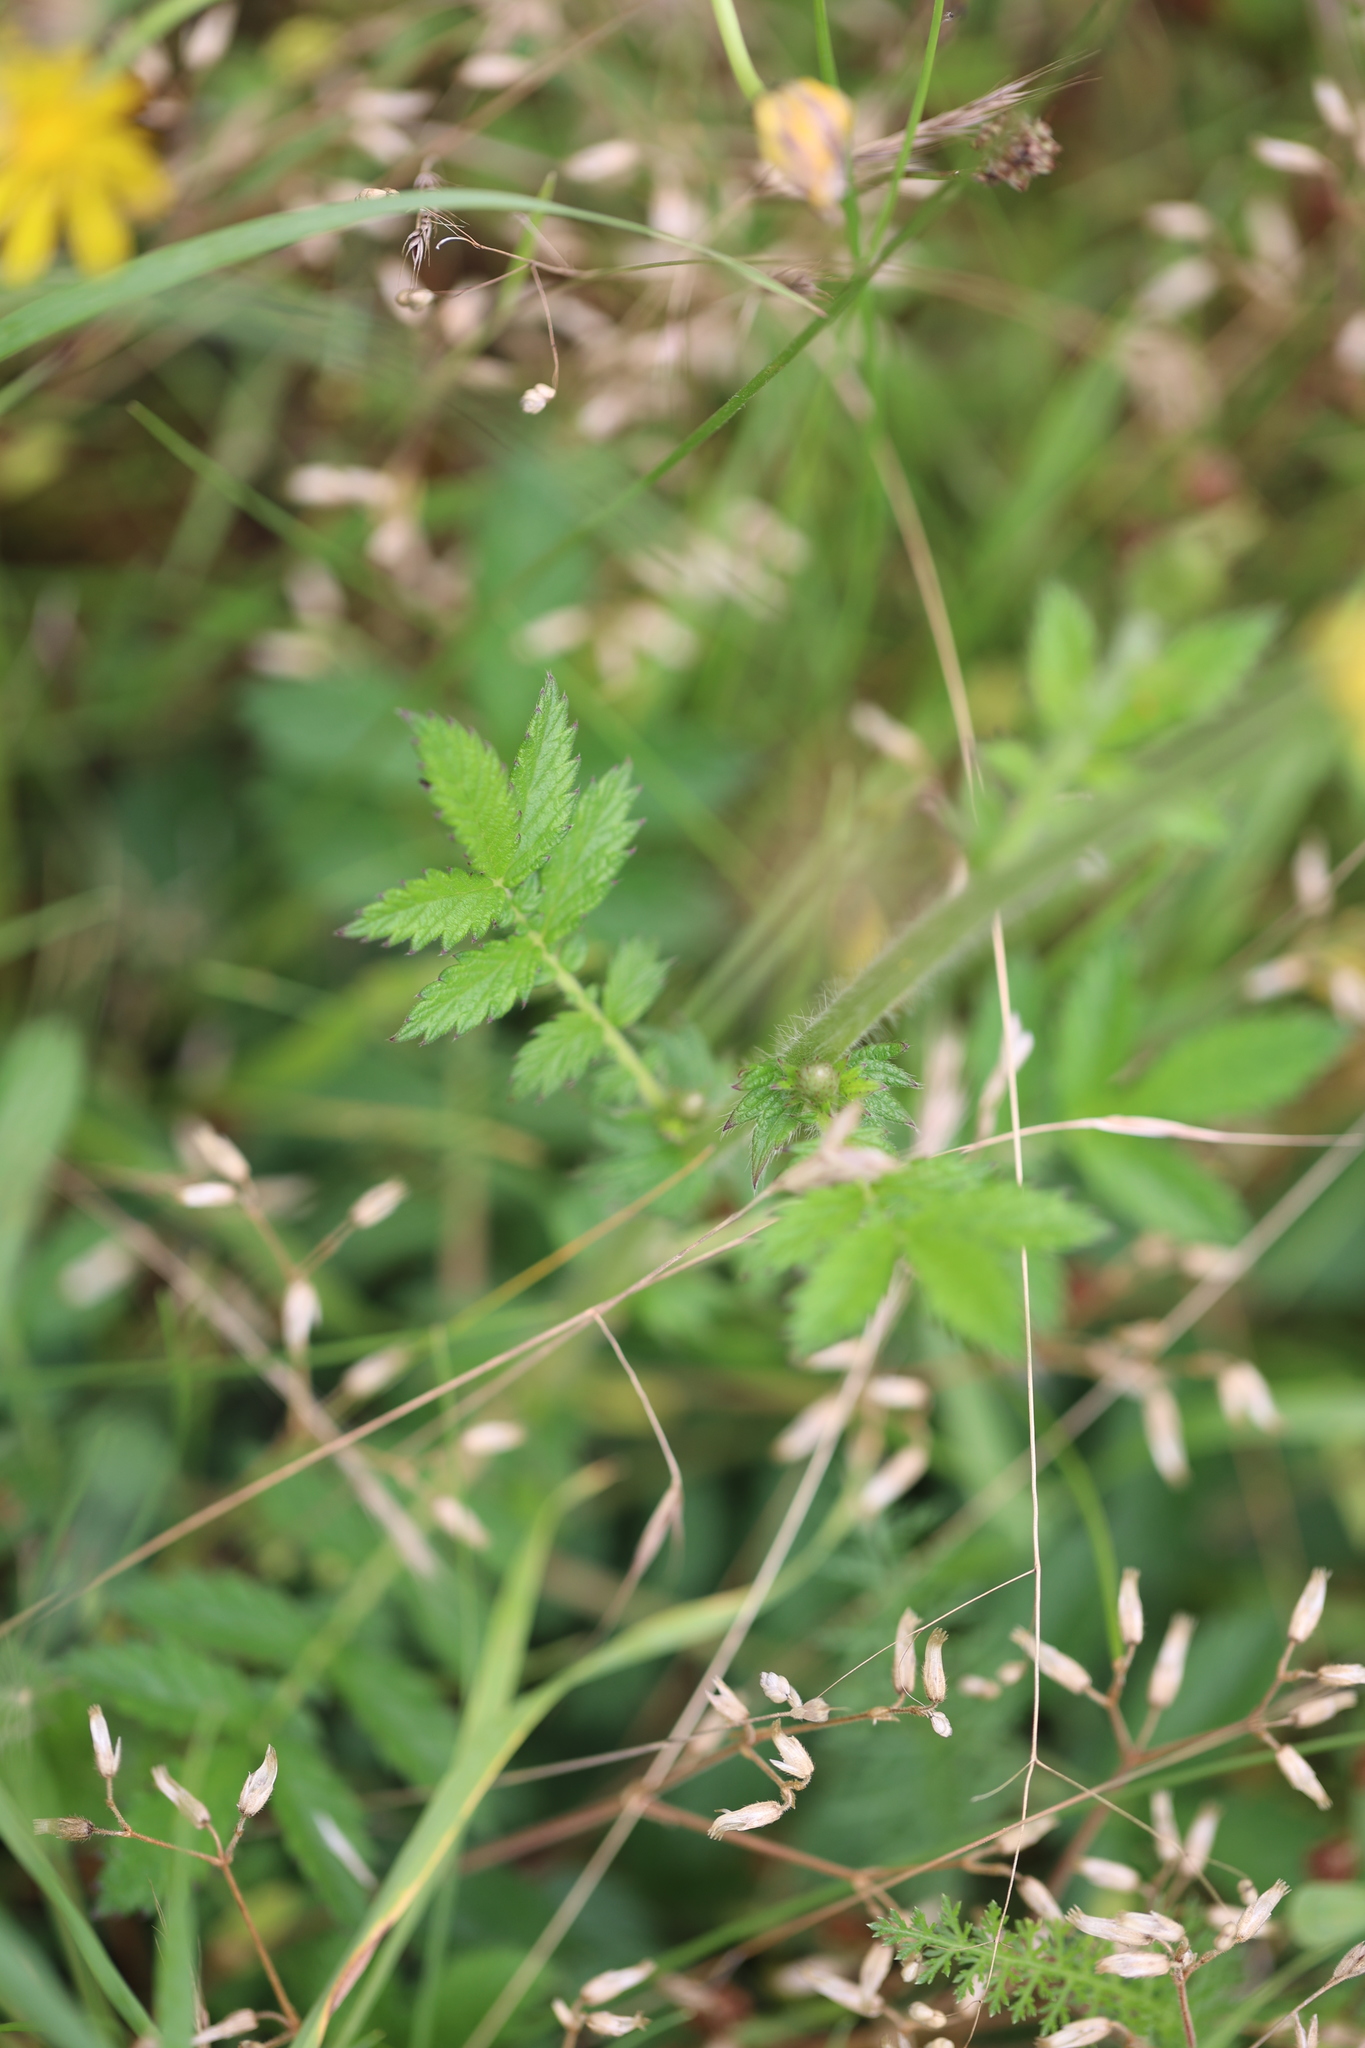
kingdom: Plantae
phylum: Tracheophyta
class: Magnoliopsida
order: Rosales
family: Rosaceae
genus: Agrimonia
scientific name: Agrimonia eupatoria
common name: Agrimony
